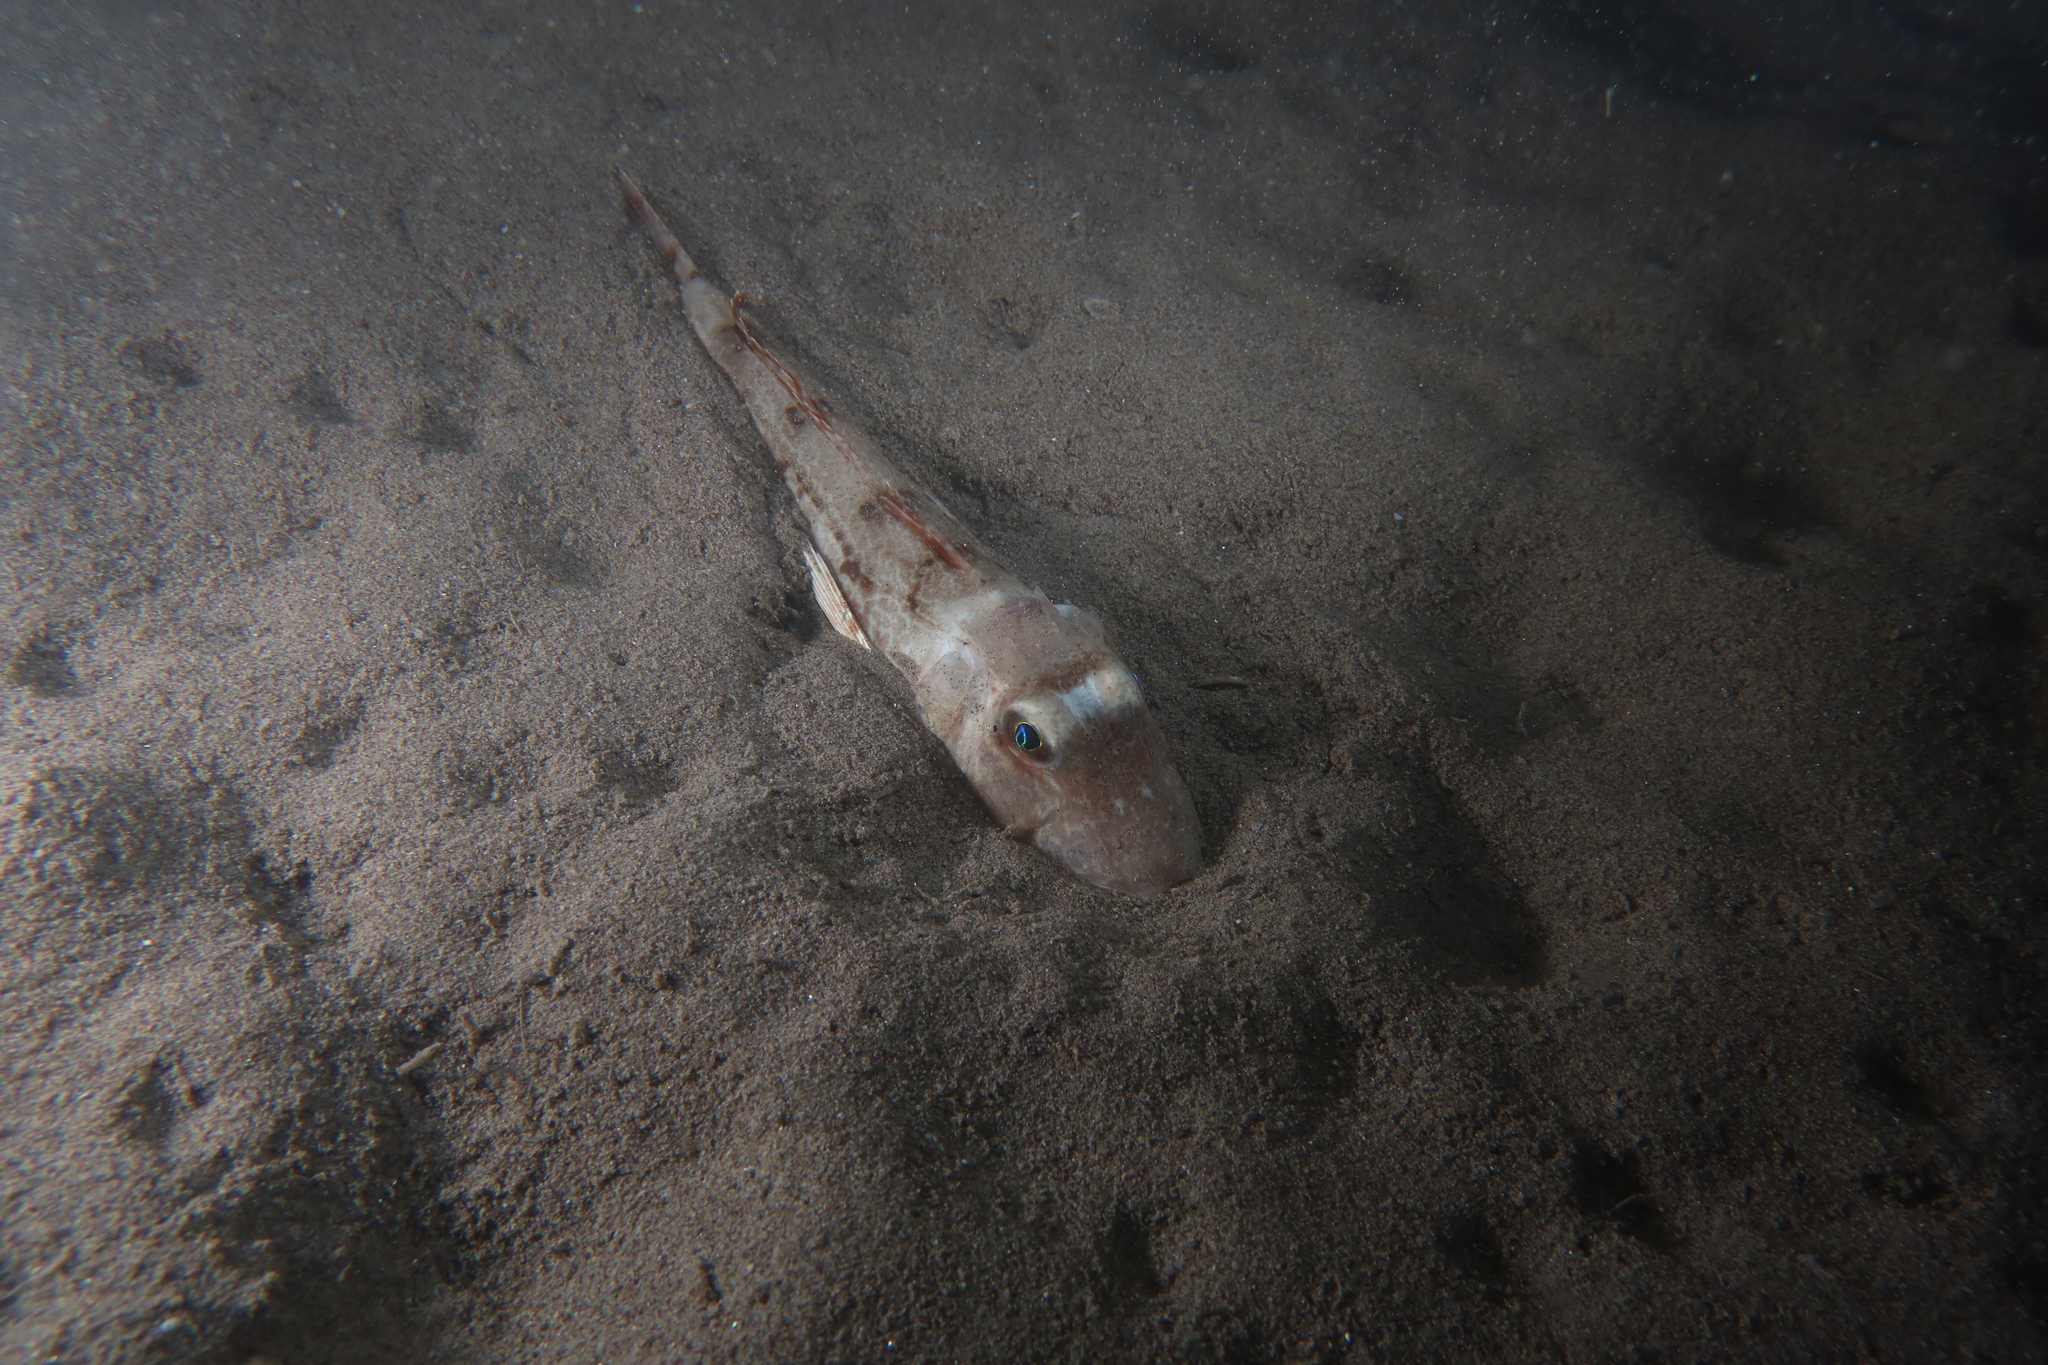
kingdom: Animalia
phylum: Chordata
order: Scorpaeniformes
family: Triglidae
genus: Chelidonichthys
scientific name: Chelidonichthys lucerna
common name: Tub gurnard
